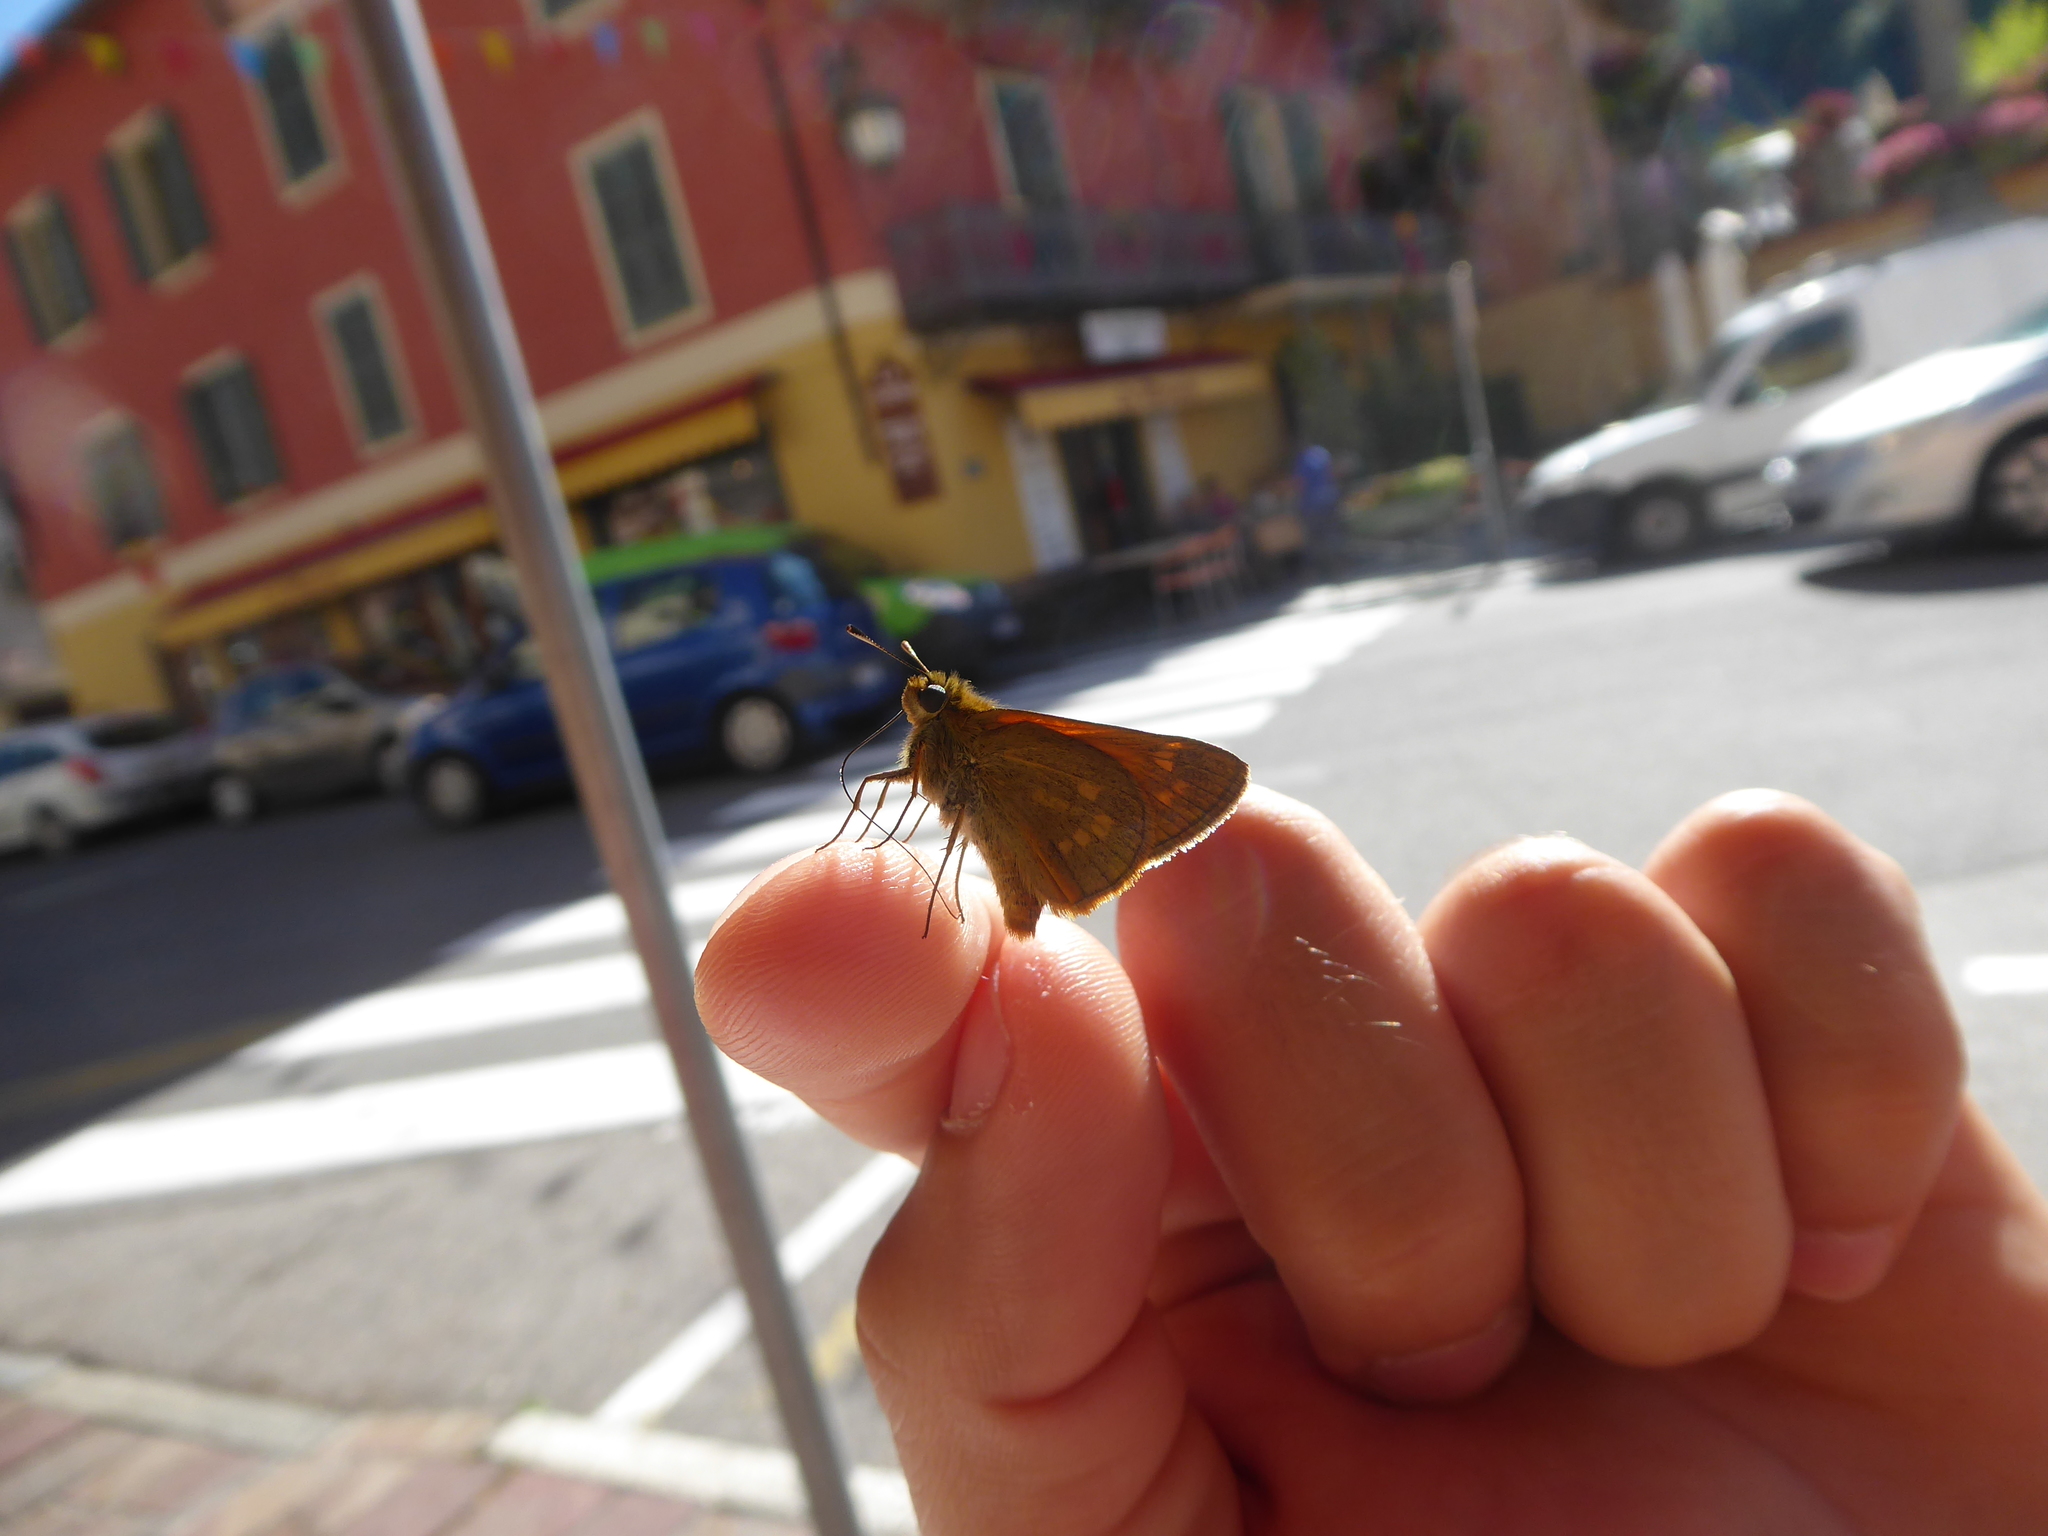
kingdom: Animalia
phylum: Arthropoda
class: Insecta
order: Lepidoptera
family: Hesperiidae
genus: Ochlodes
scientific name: Ochlodes venata
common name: Large skipper
